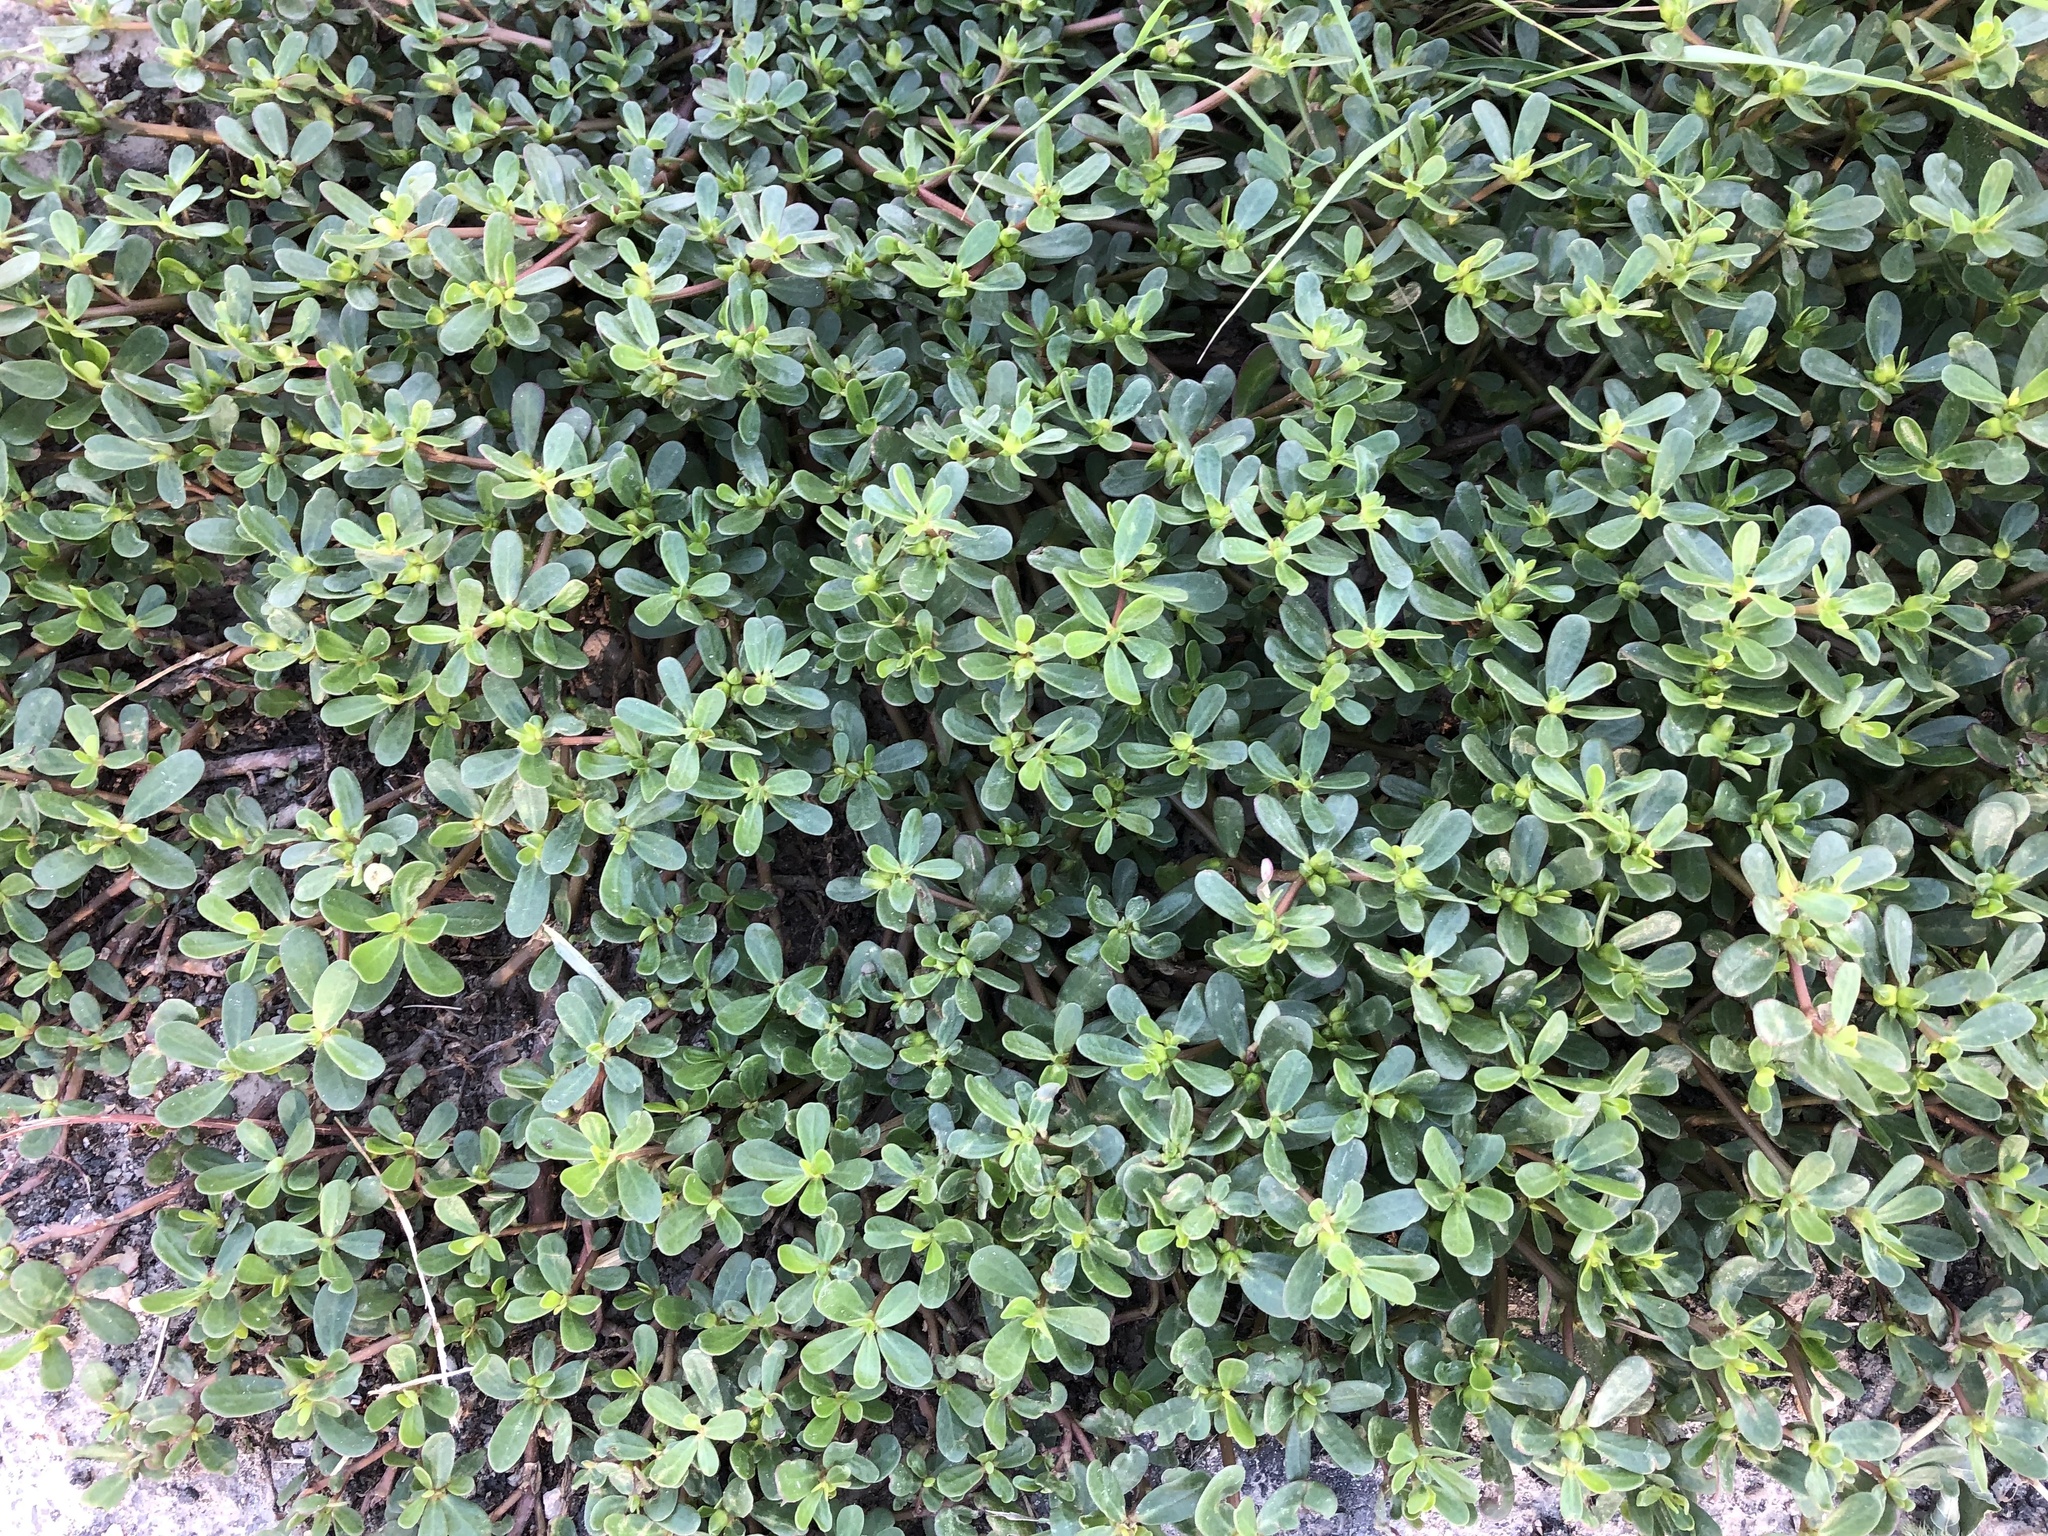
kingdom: Plantae
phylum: Tracheophyta
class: Magnoliopsida
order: Caryophyllales
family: Portulacaceae
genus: Portulaca
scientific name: Portulaca oleracea
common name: Common purslane
